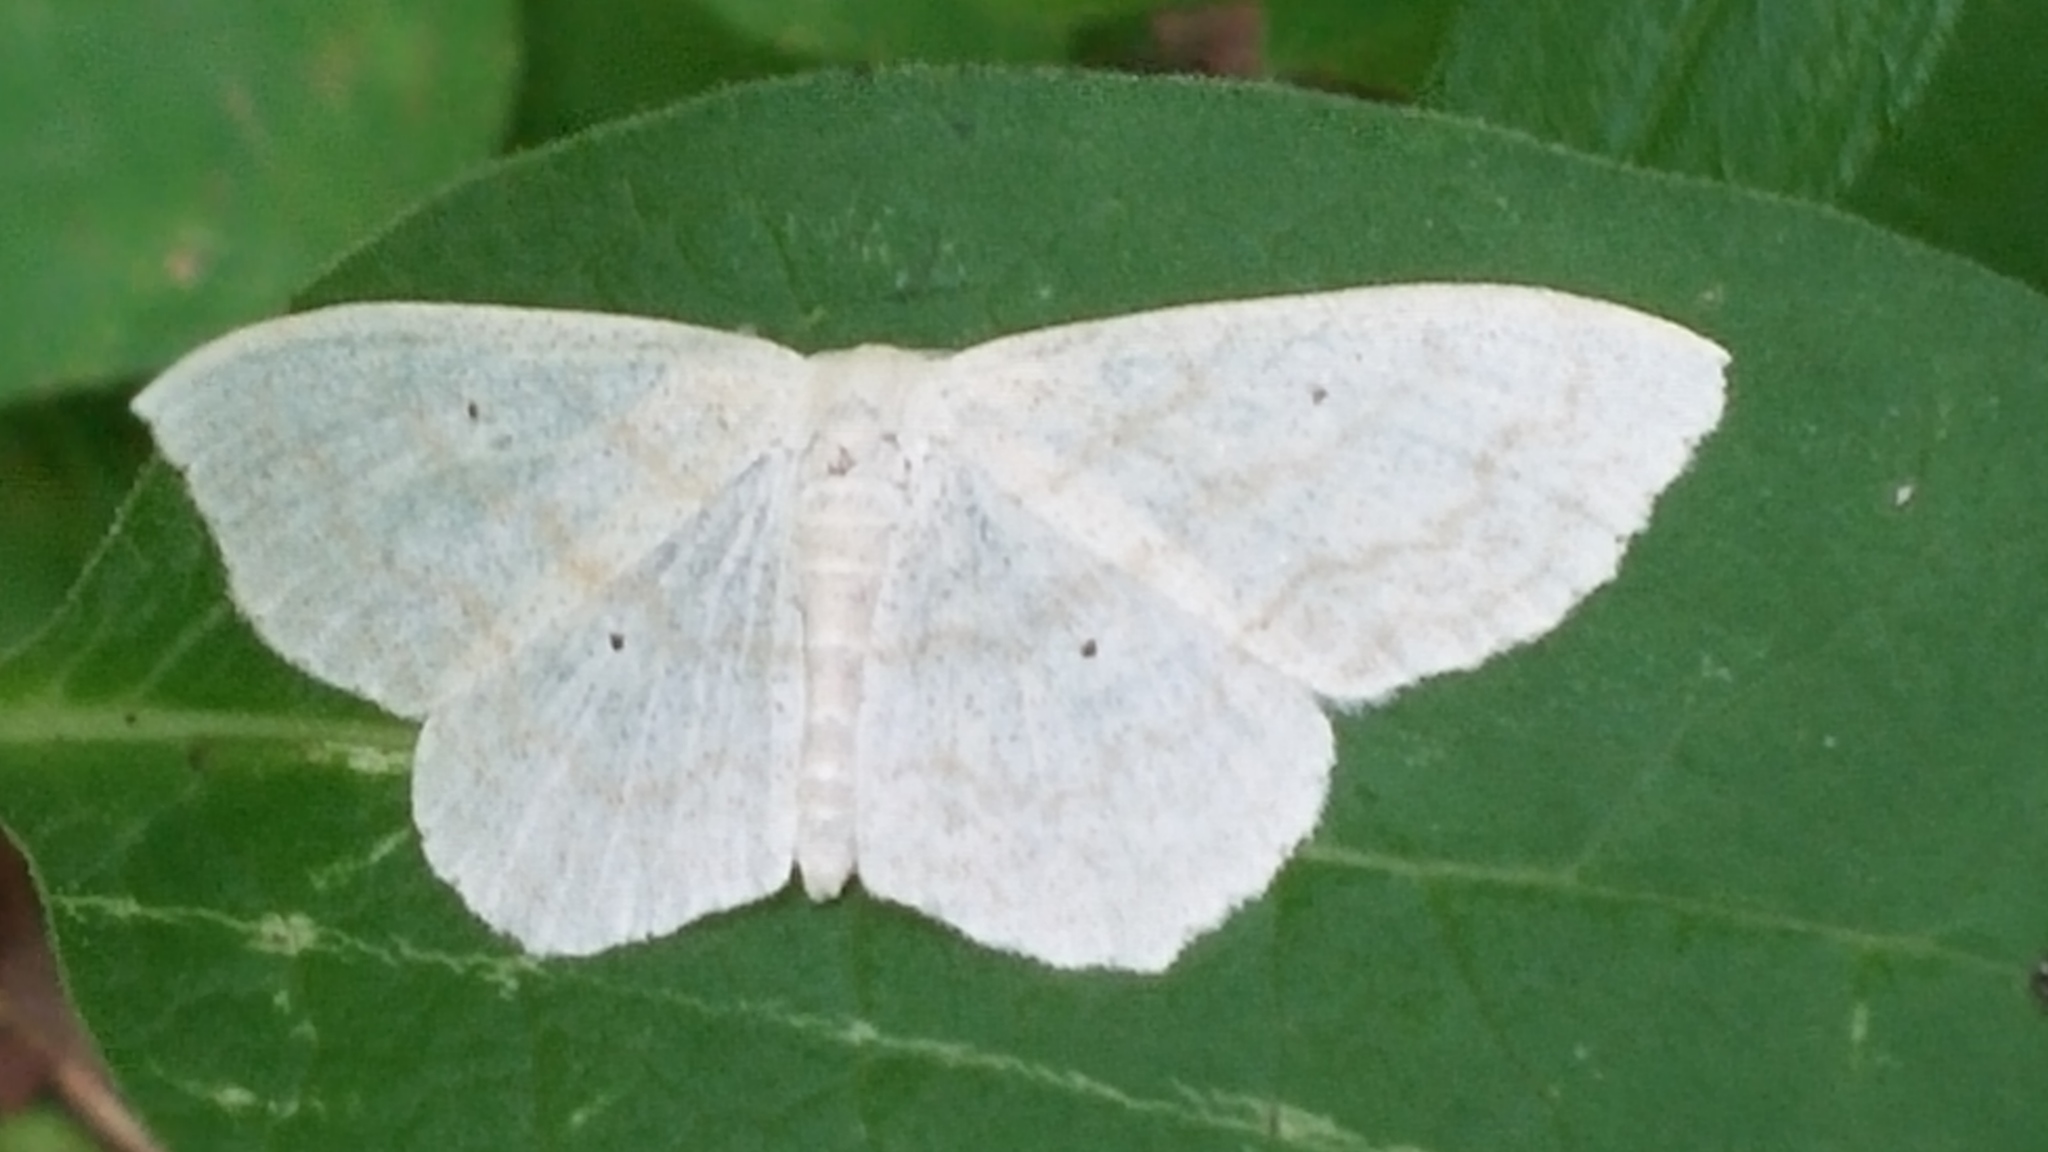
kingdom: Animalia
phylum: Arthropoda
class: Insecta
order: Lepidoptera
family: Geometridae
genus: Scopula
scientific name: Scopula limboundata
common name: Large lace border
